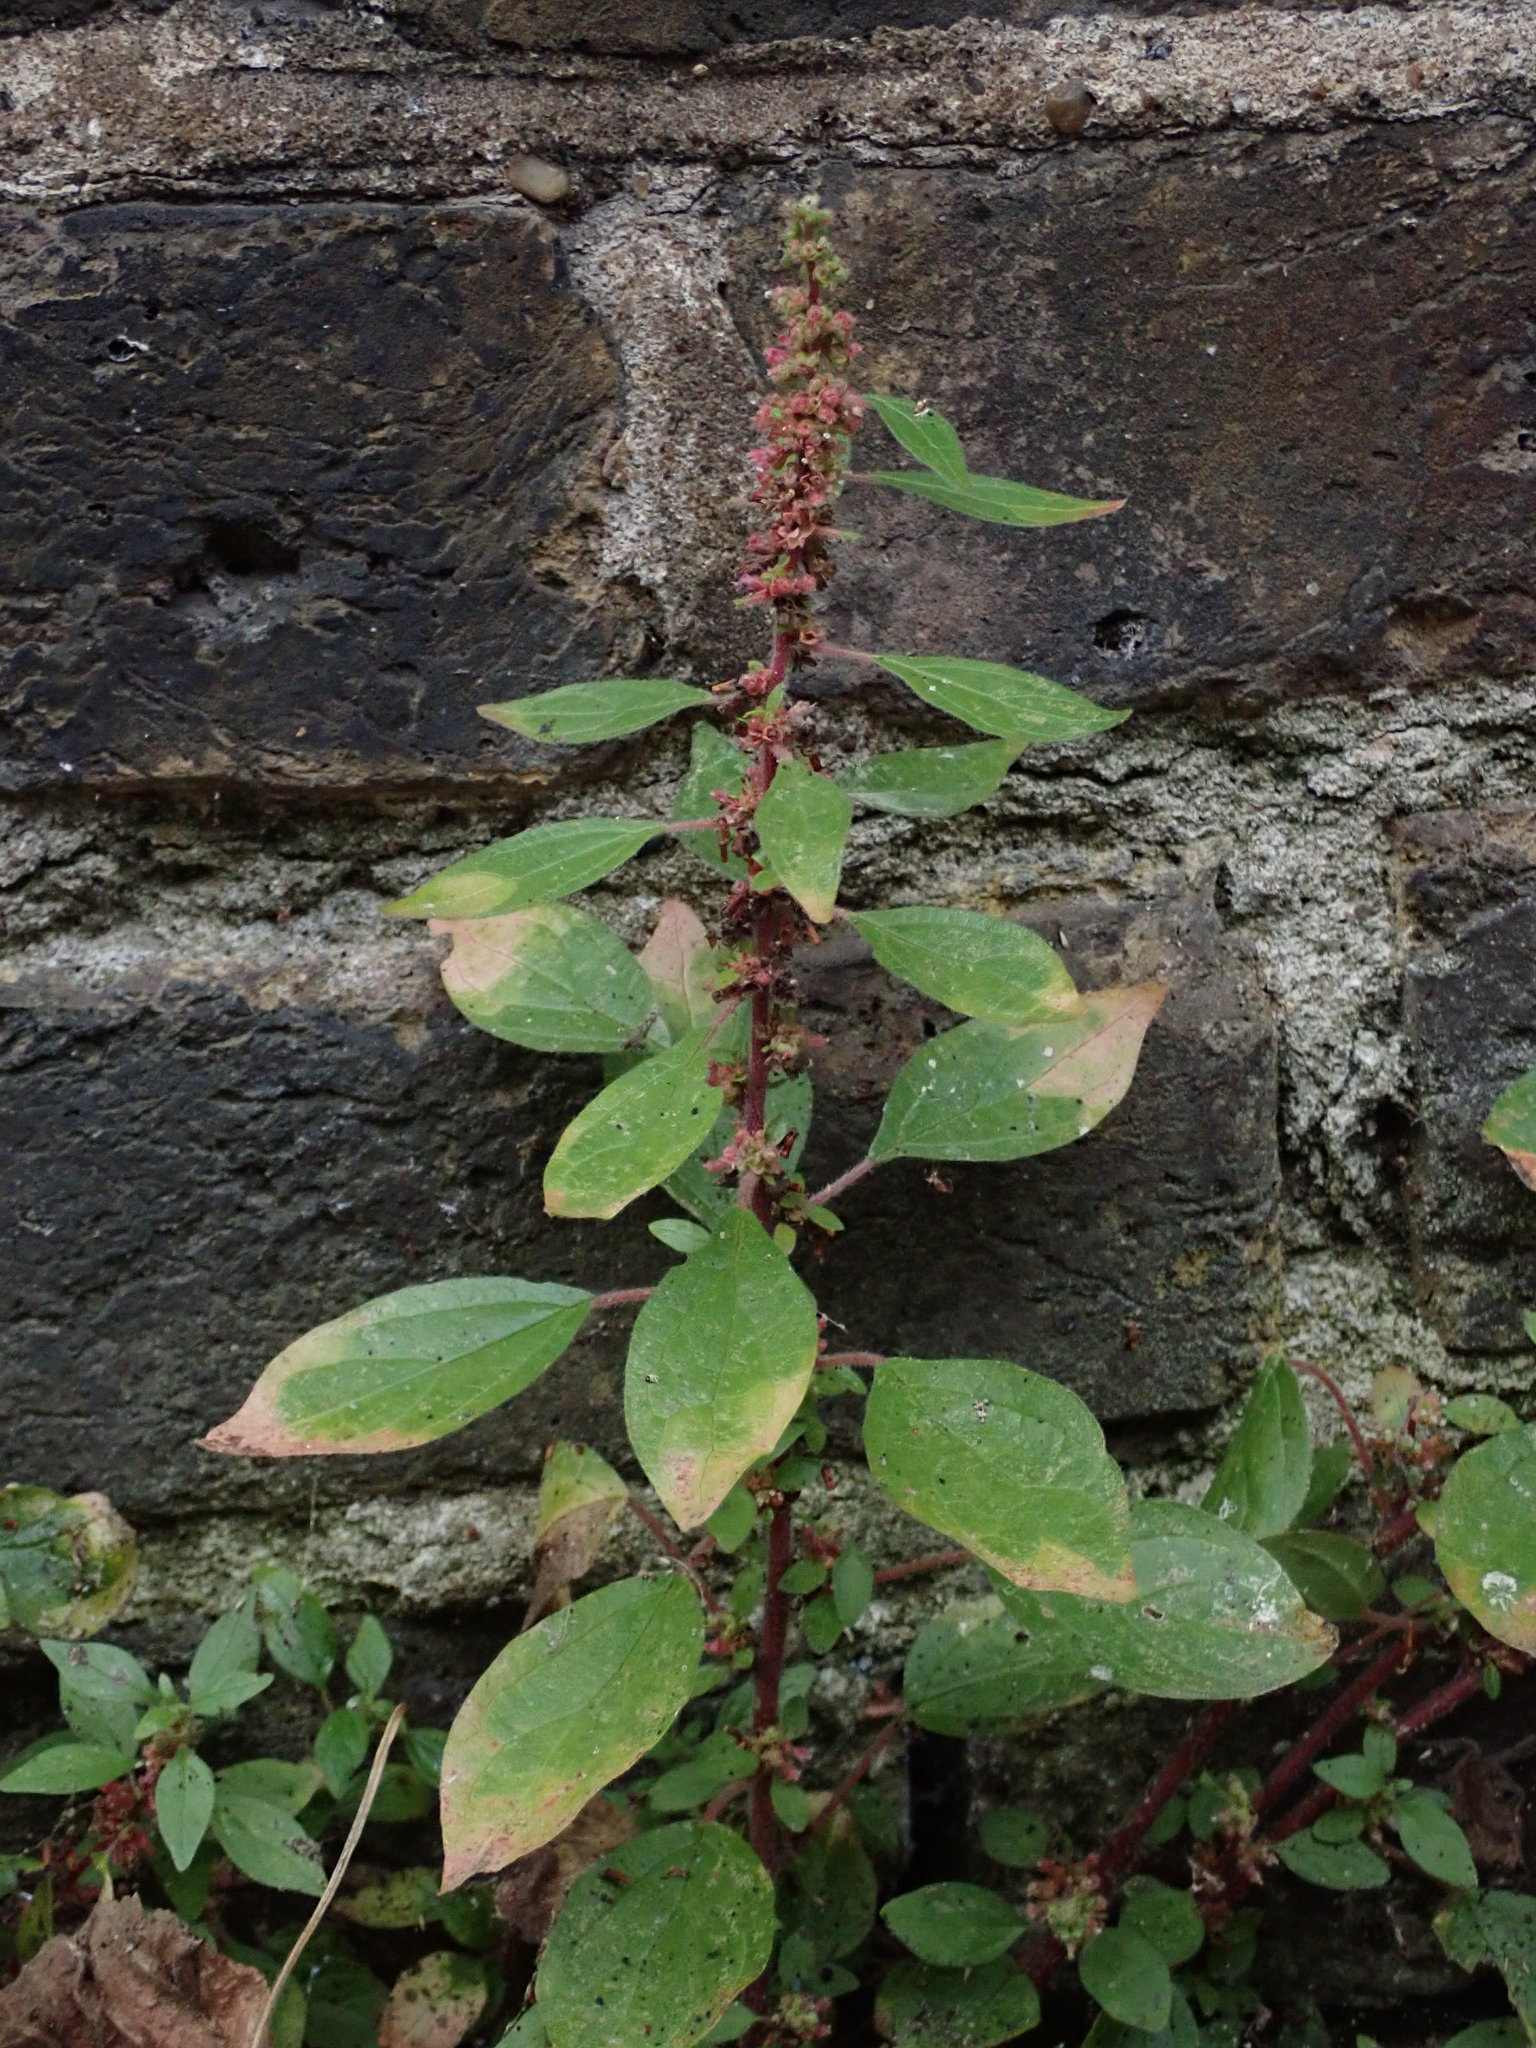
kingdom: Plantae
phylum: Tracheophyta
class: Magnoliopsida
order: Rosales
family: Urticaceae
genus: Parietaria
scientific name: Parietaria judaica
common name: Pellitory-of-the-wall
